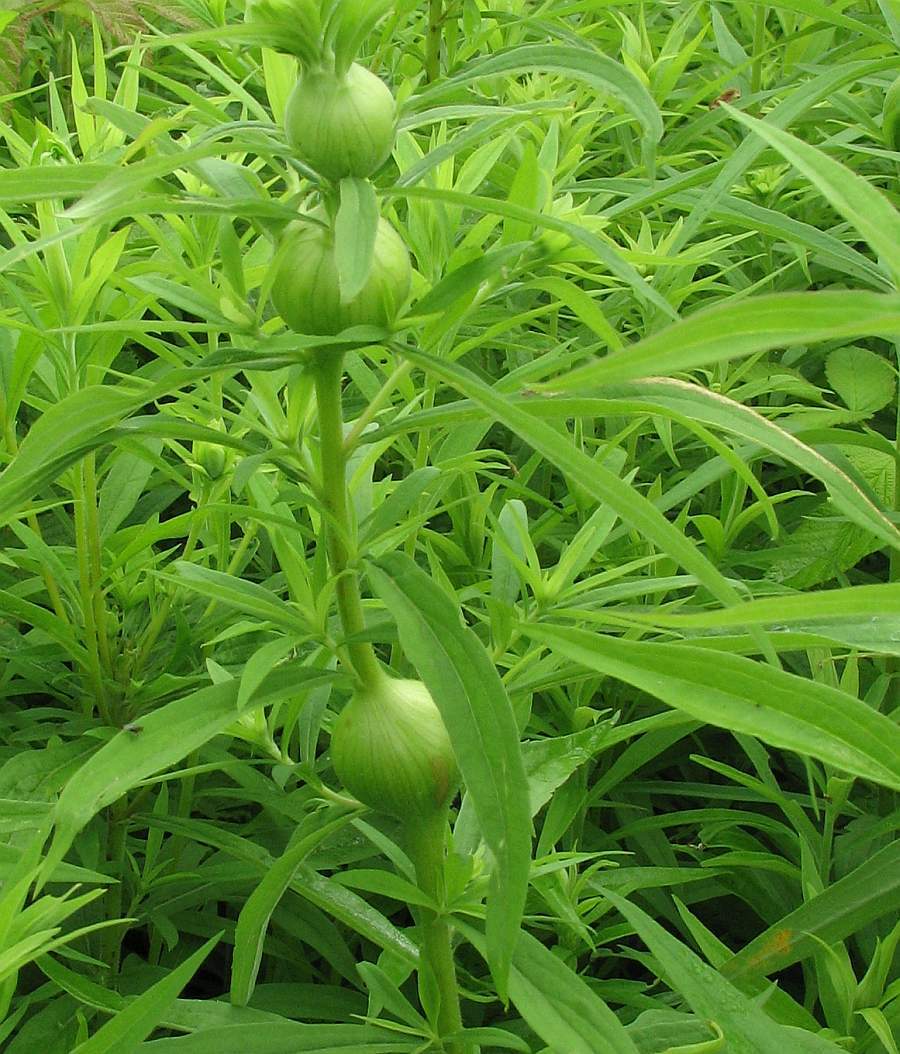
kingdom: Animalia
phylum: Arthropoda
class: Insecta
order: Diptera
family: Tephritidae
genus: Eurosta
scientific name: Eurosta solidaginis
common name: Goldenrod gall fly
